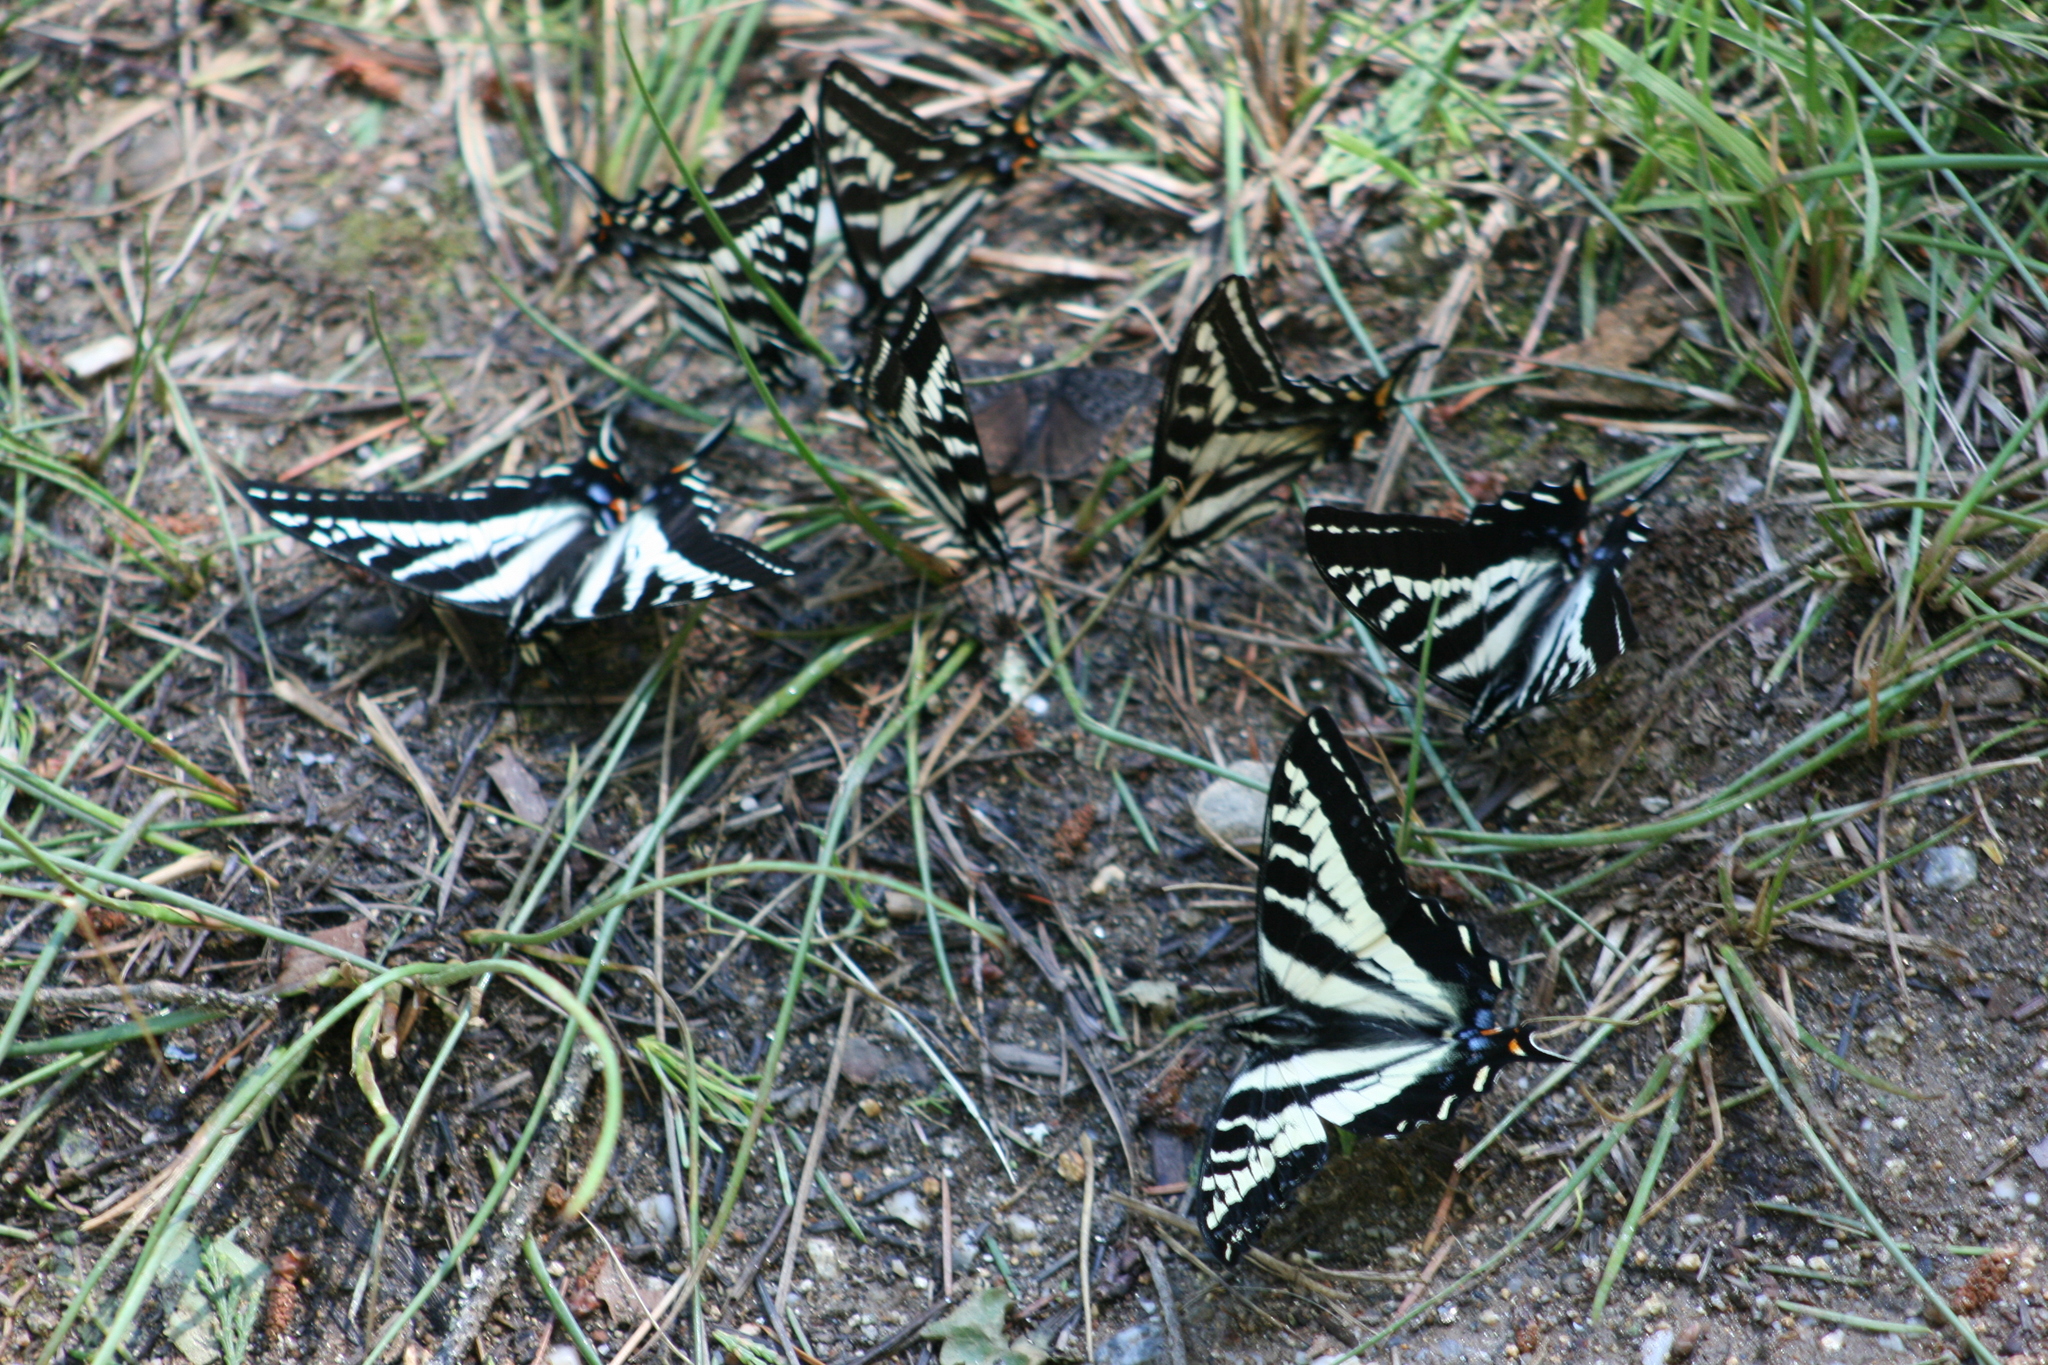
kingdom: Animalia
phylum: Arthropoda
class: Insecta
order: Lepidoptera
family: Papilionidae
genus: Papilio
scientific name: Papilio eurymedon
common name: Pale tiger swallowtail
